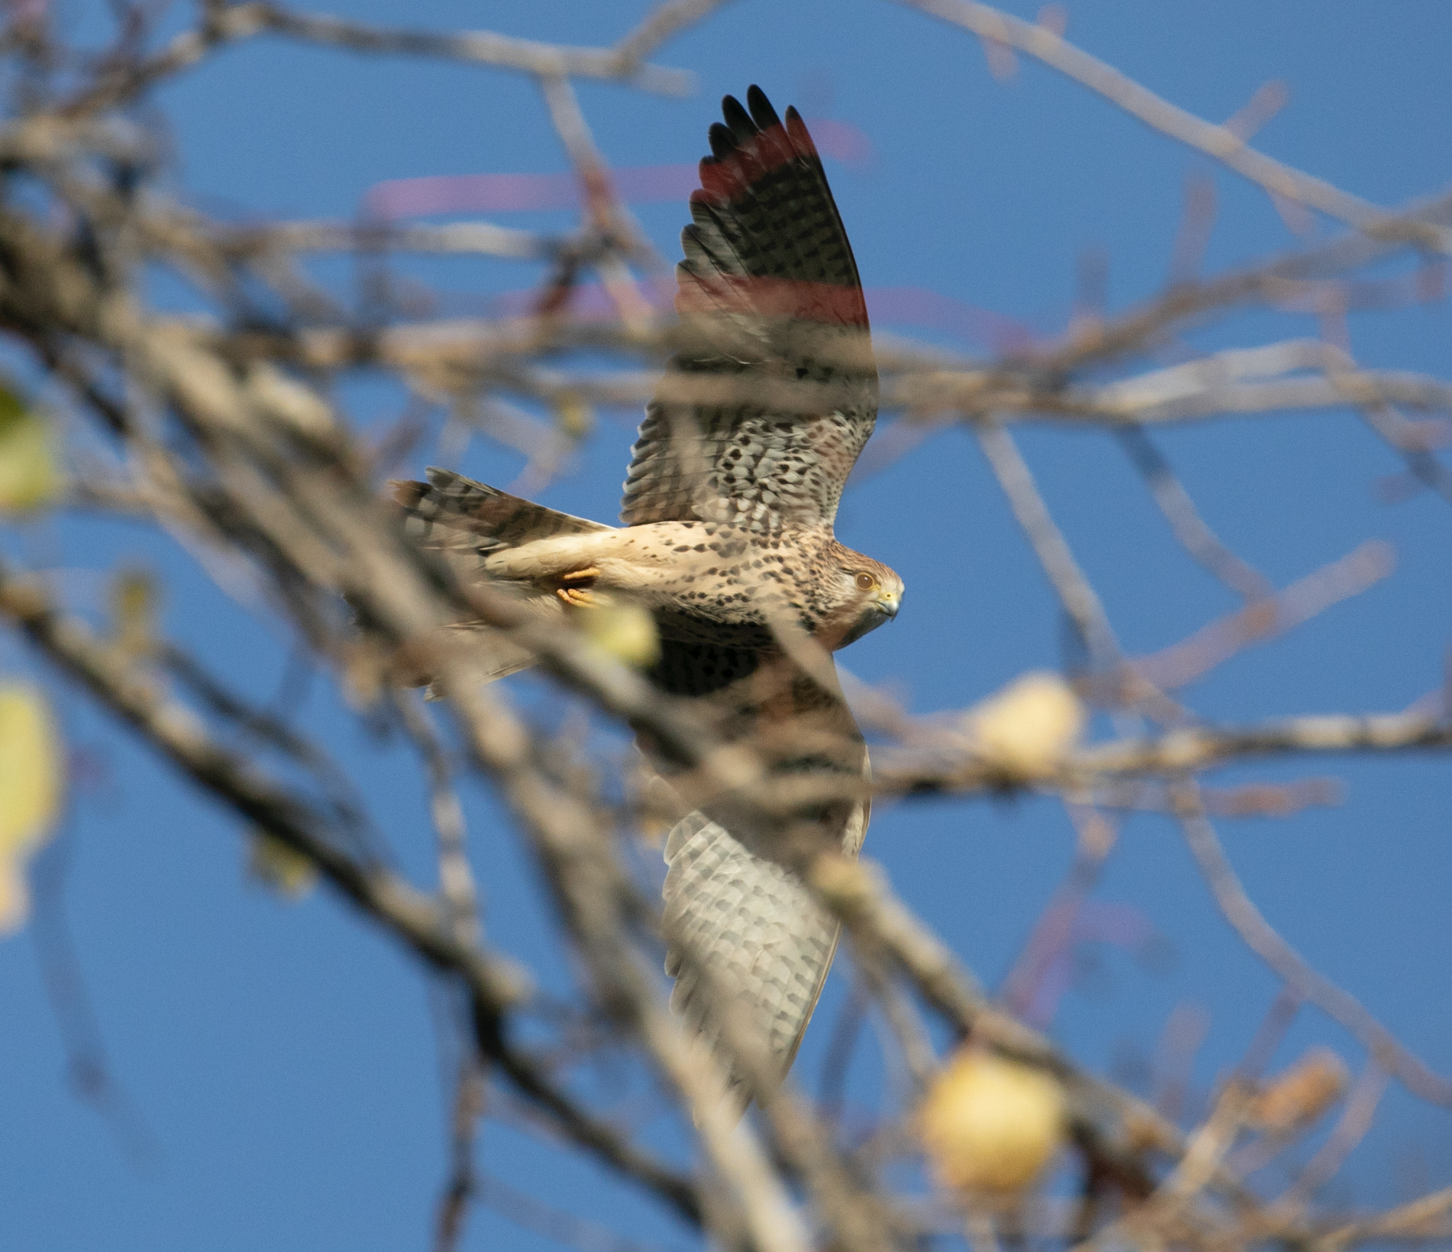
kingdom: Animalia
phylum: Chordata
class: Aves
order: Falconiformes
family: Falconidae
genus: Falco
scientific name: Falco tinnunculus
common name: Common kestrel
